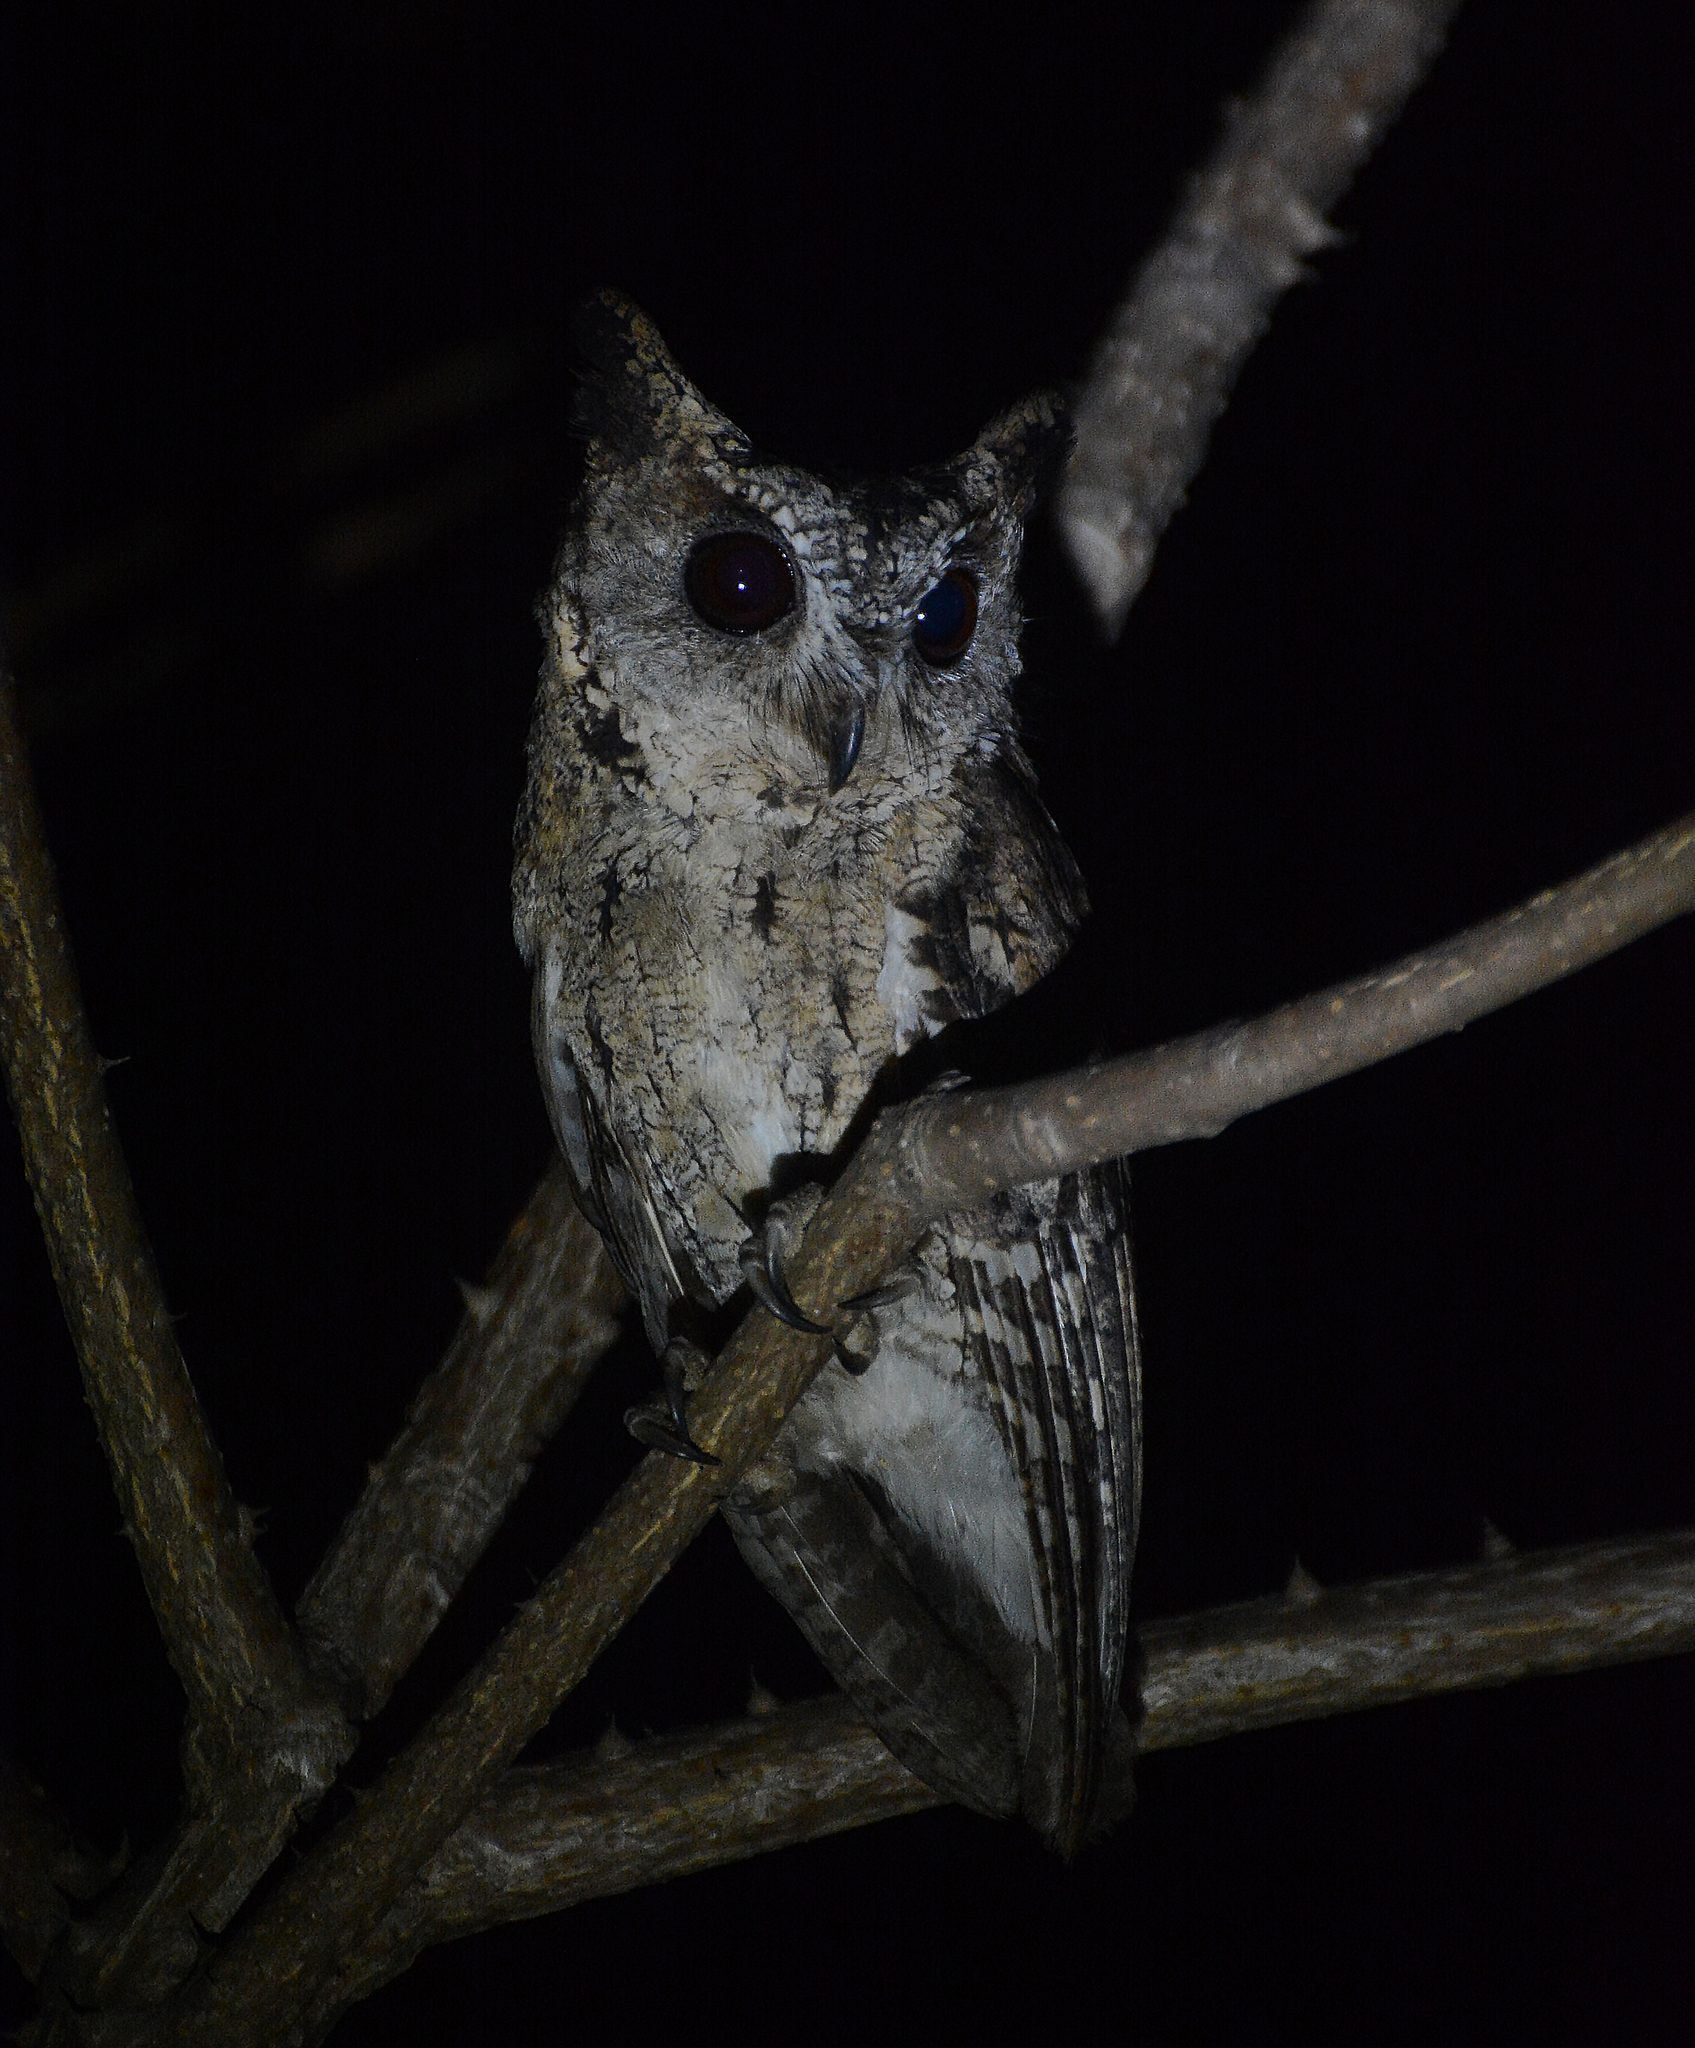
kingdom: Animalia
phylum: Chordata
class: Aves
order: Strigiformes
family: Strigidae
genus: Otus
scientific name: Otus bakkamoena
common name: Indian scops owl
